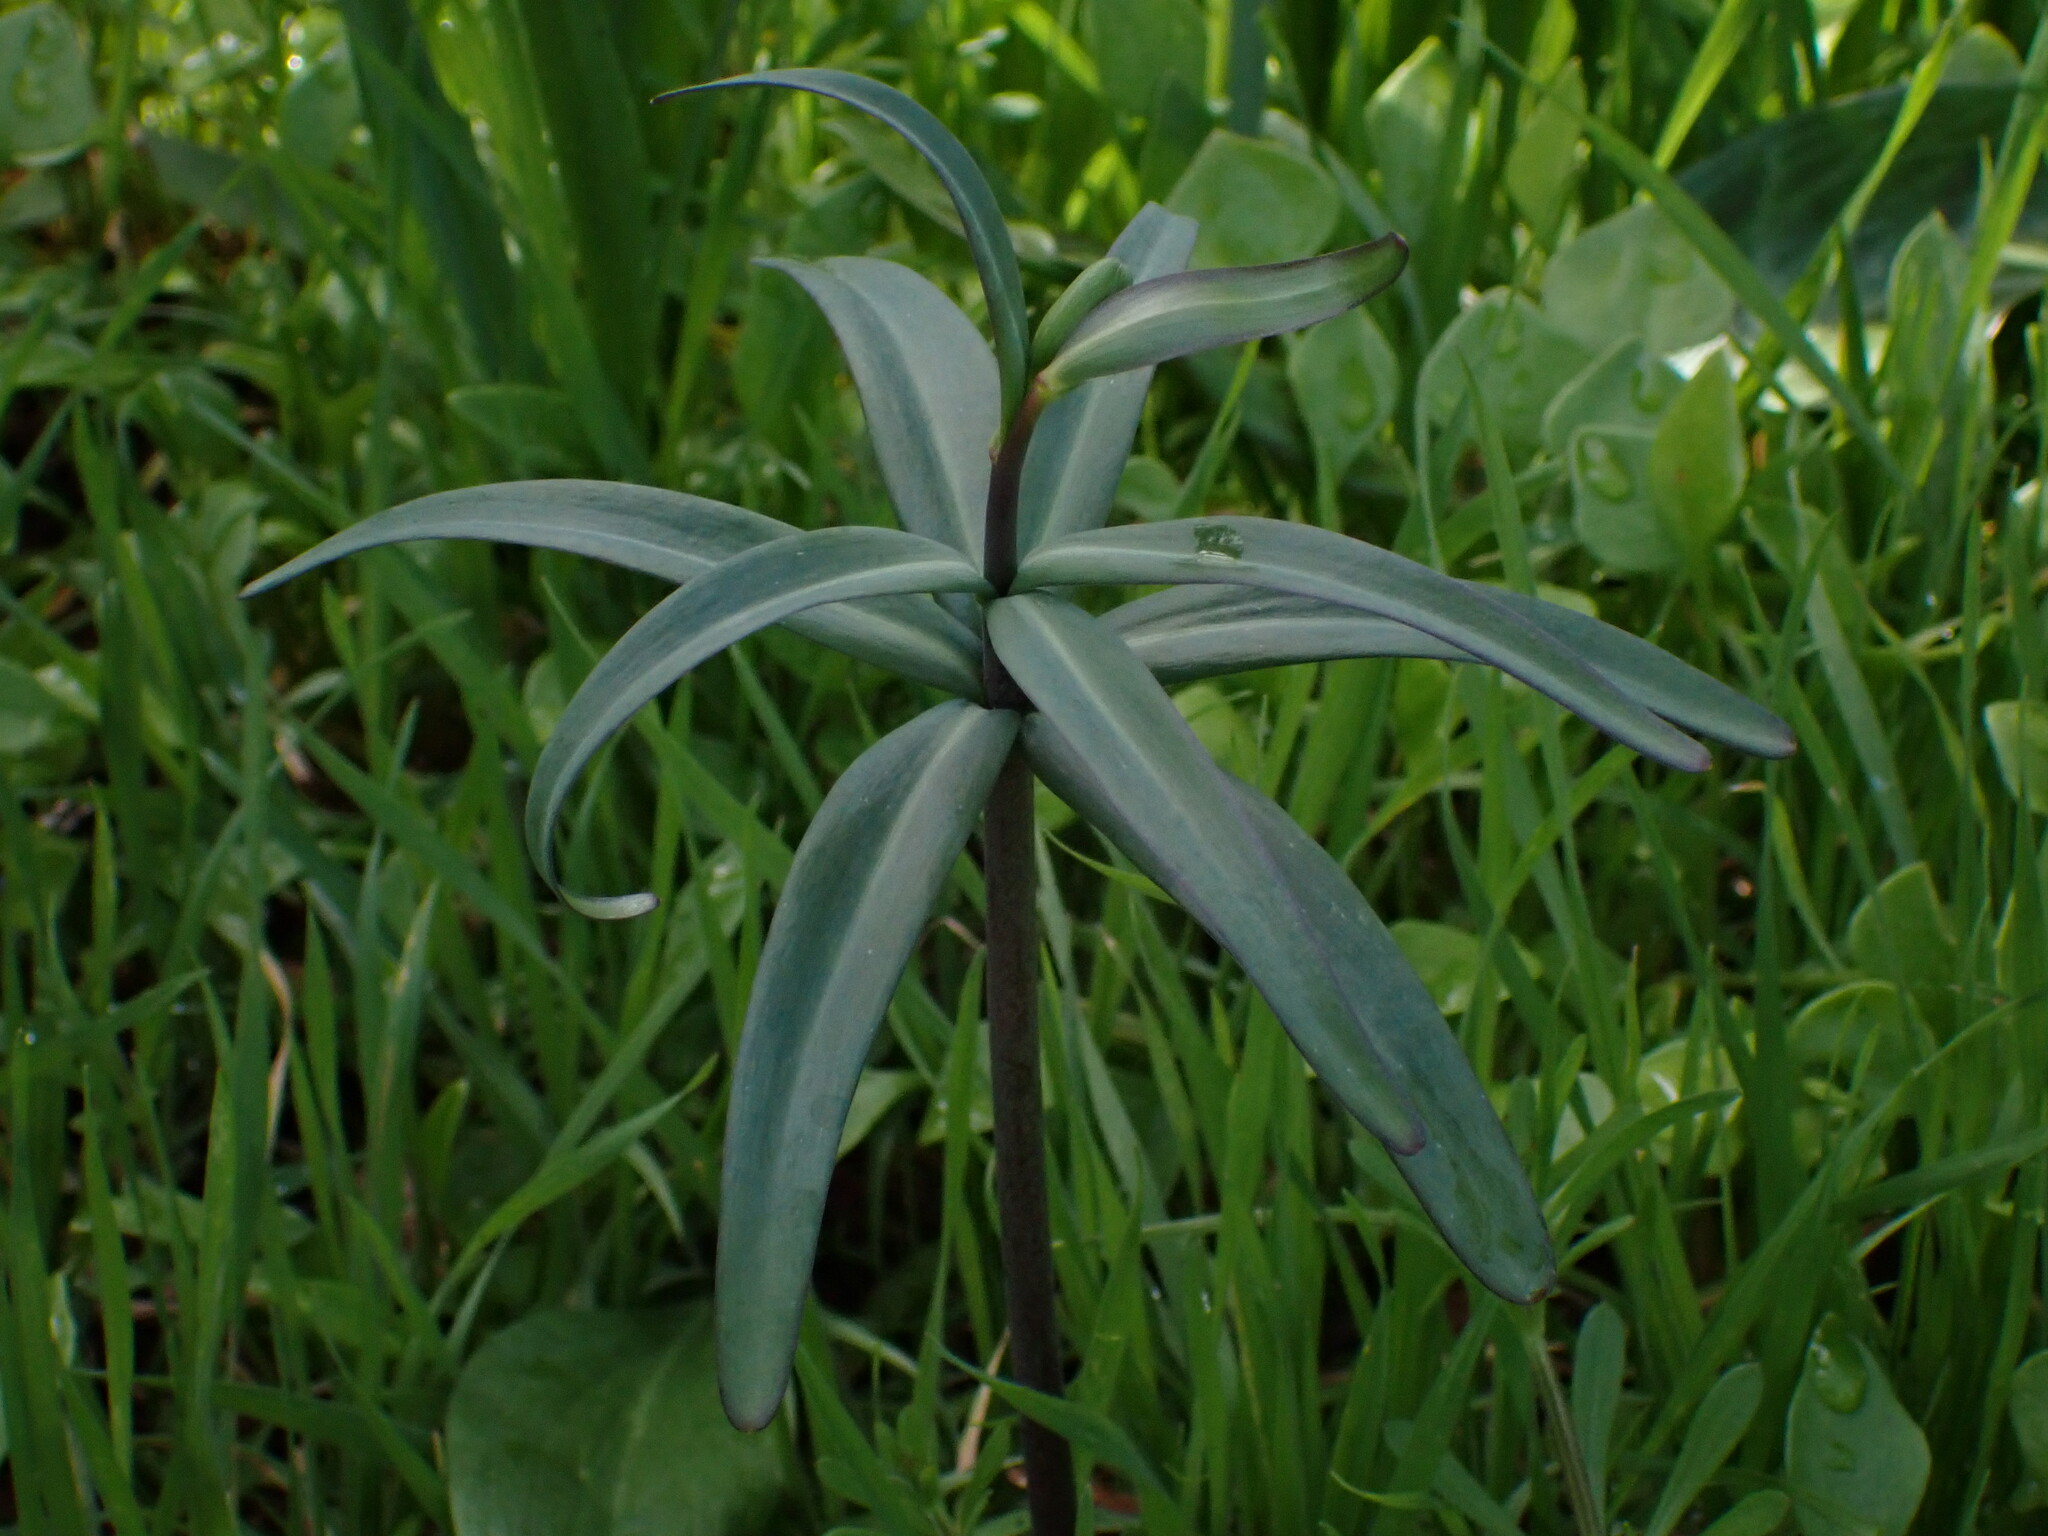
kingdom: Plantae
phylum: Tracheophyta
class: Liliopsida
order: Liliales
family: Liliaceae
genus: Fritillaria
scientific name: Fritillaria affinis
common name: Ojai fritillary
